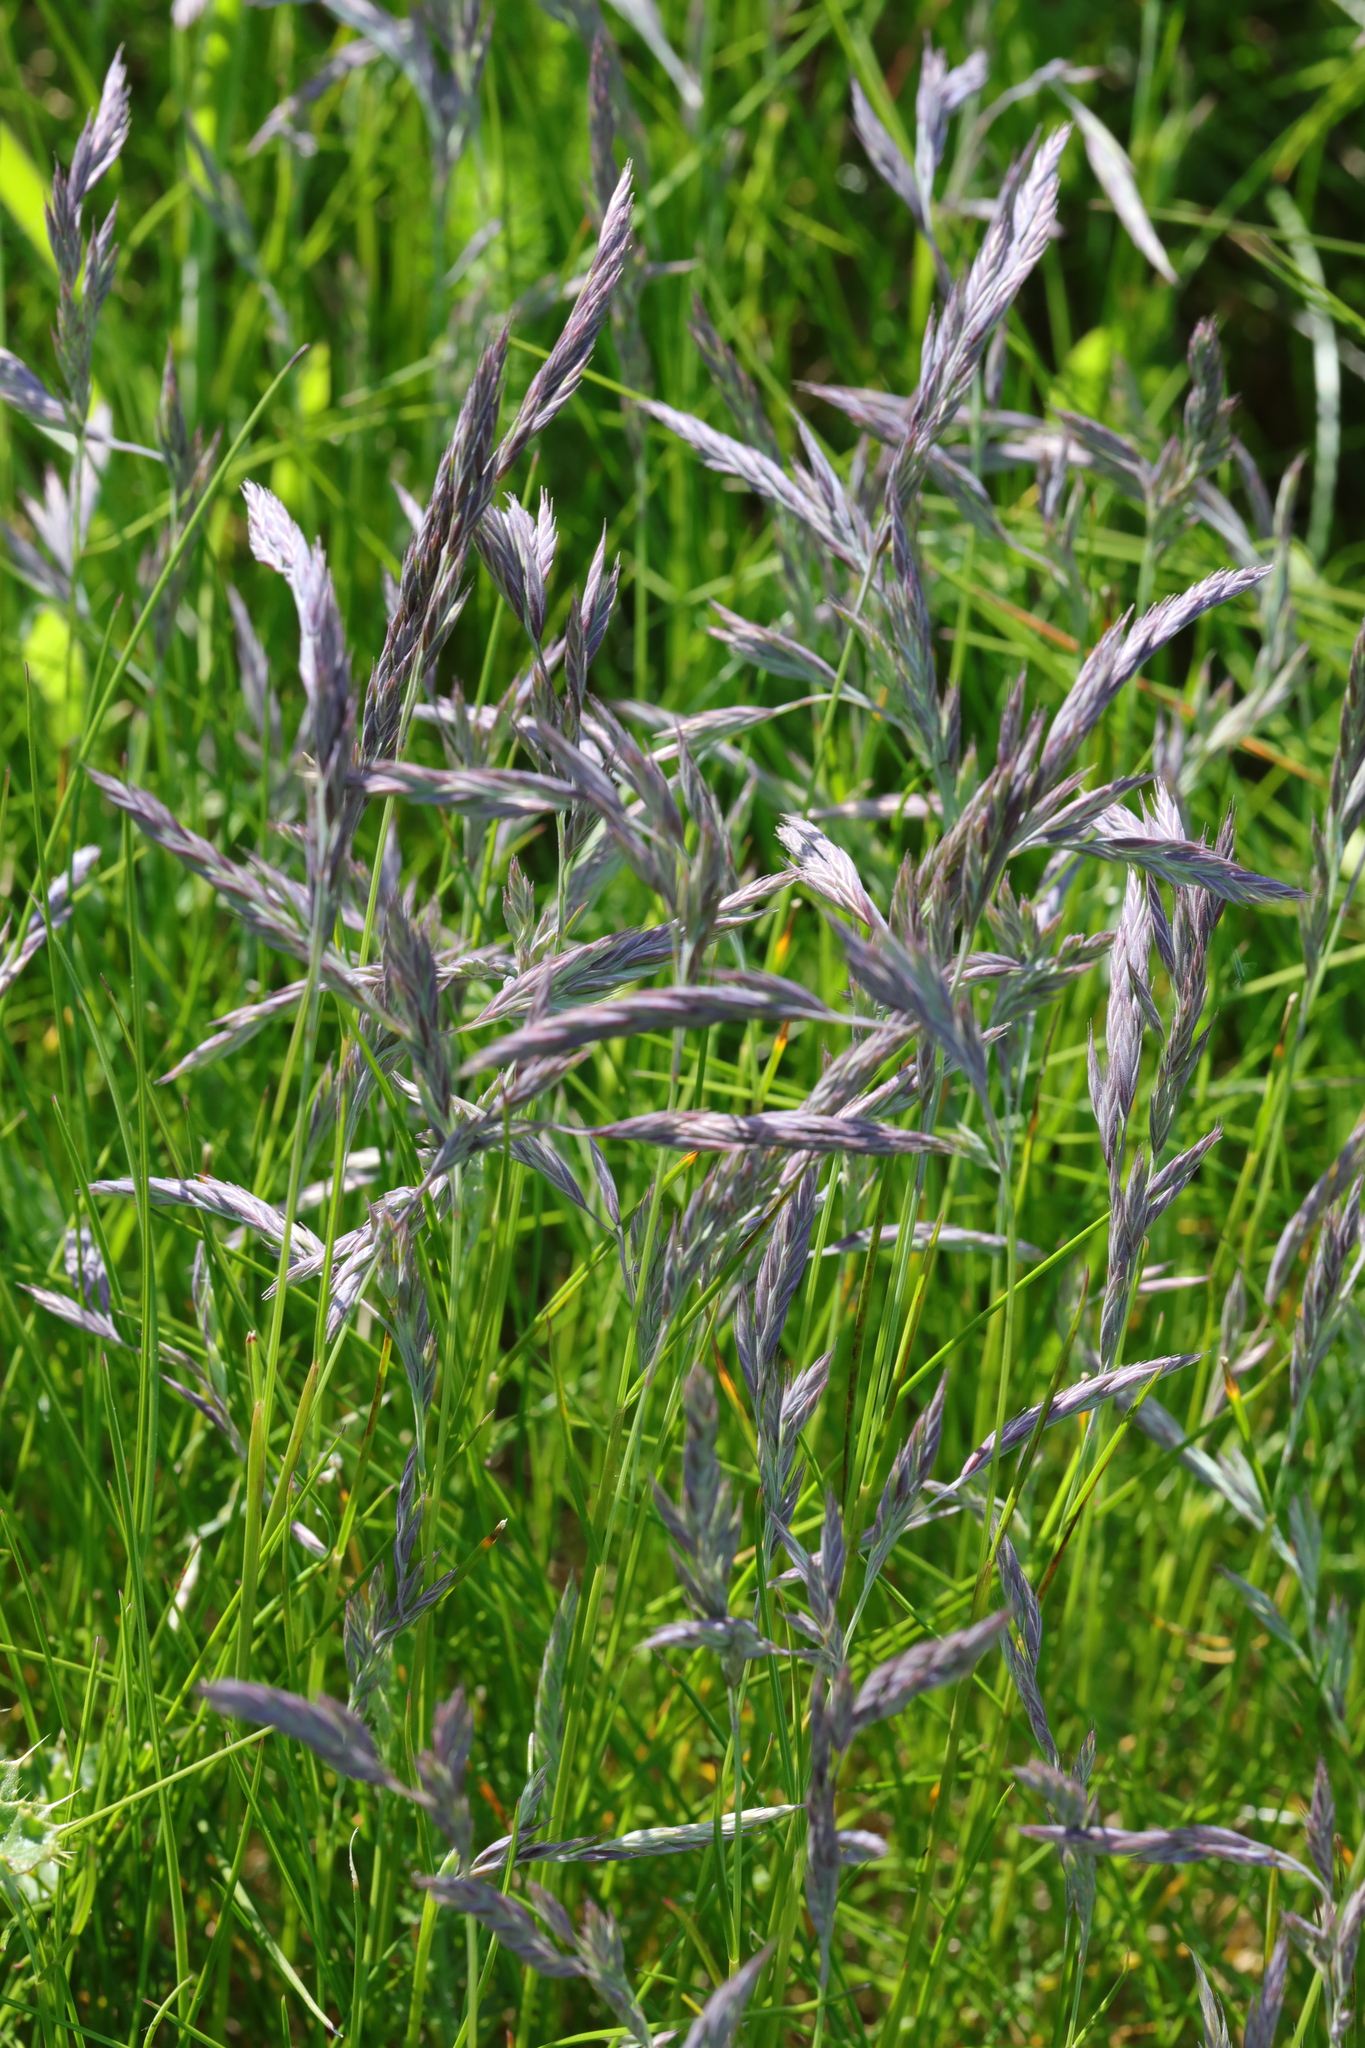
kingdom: Plantae
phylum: Tracheophyta
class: Liliopsida
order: Poales
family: Poaceae
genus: Festuca
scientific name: Festuca rubra
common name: Red fescue
